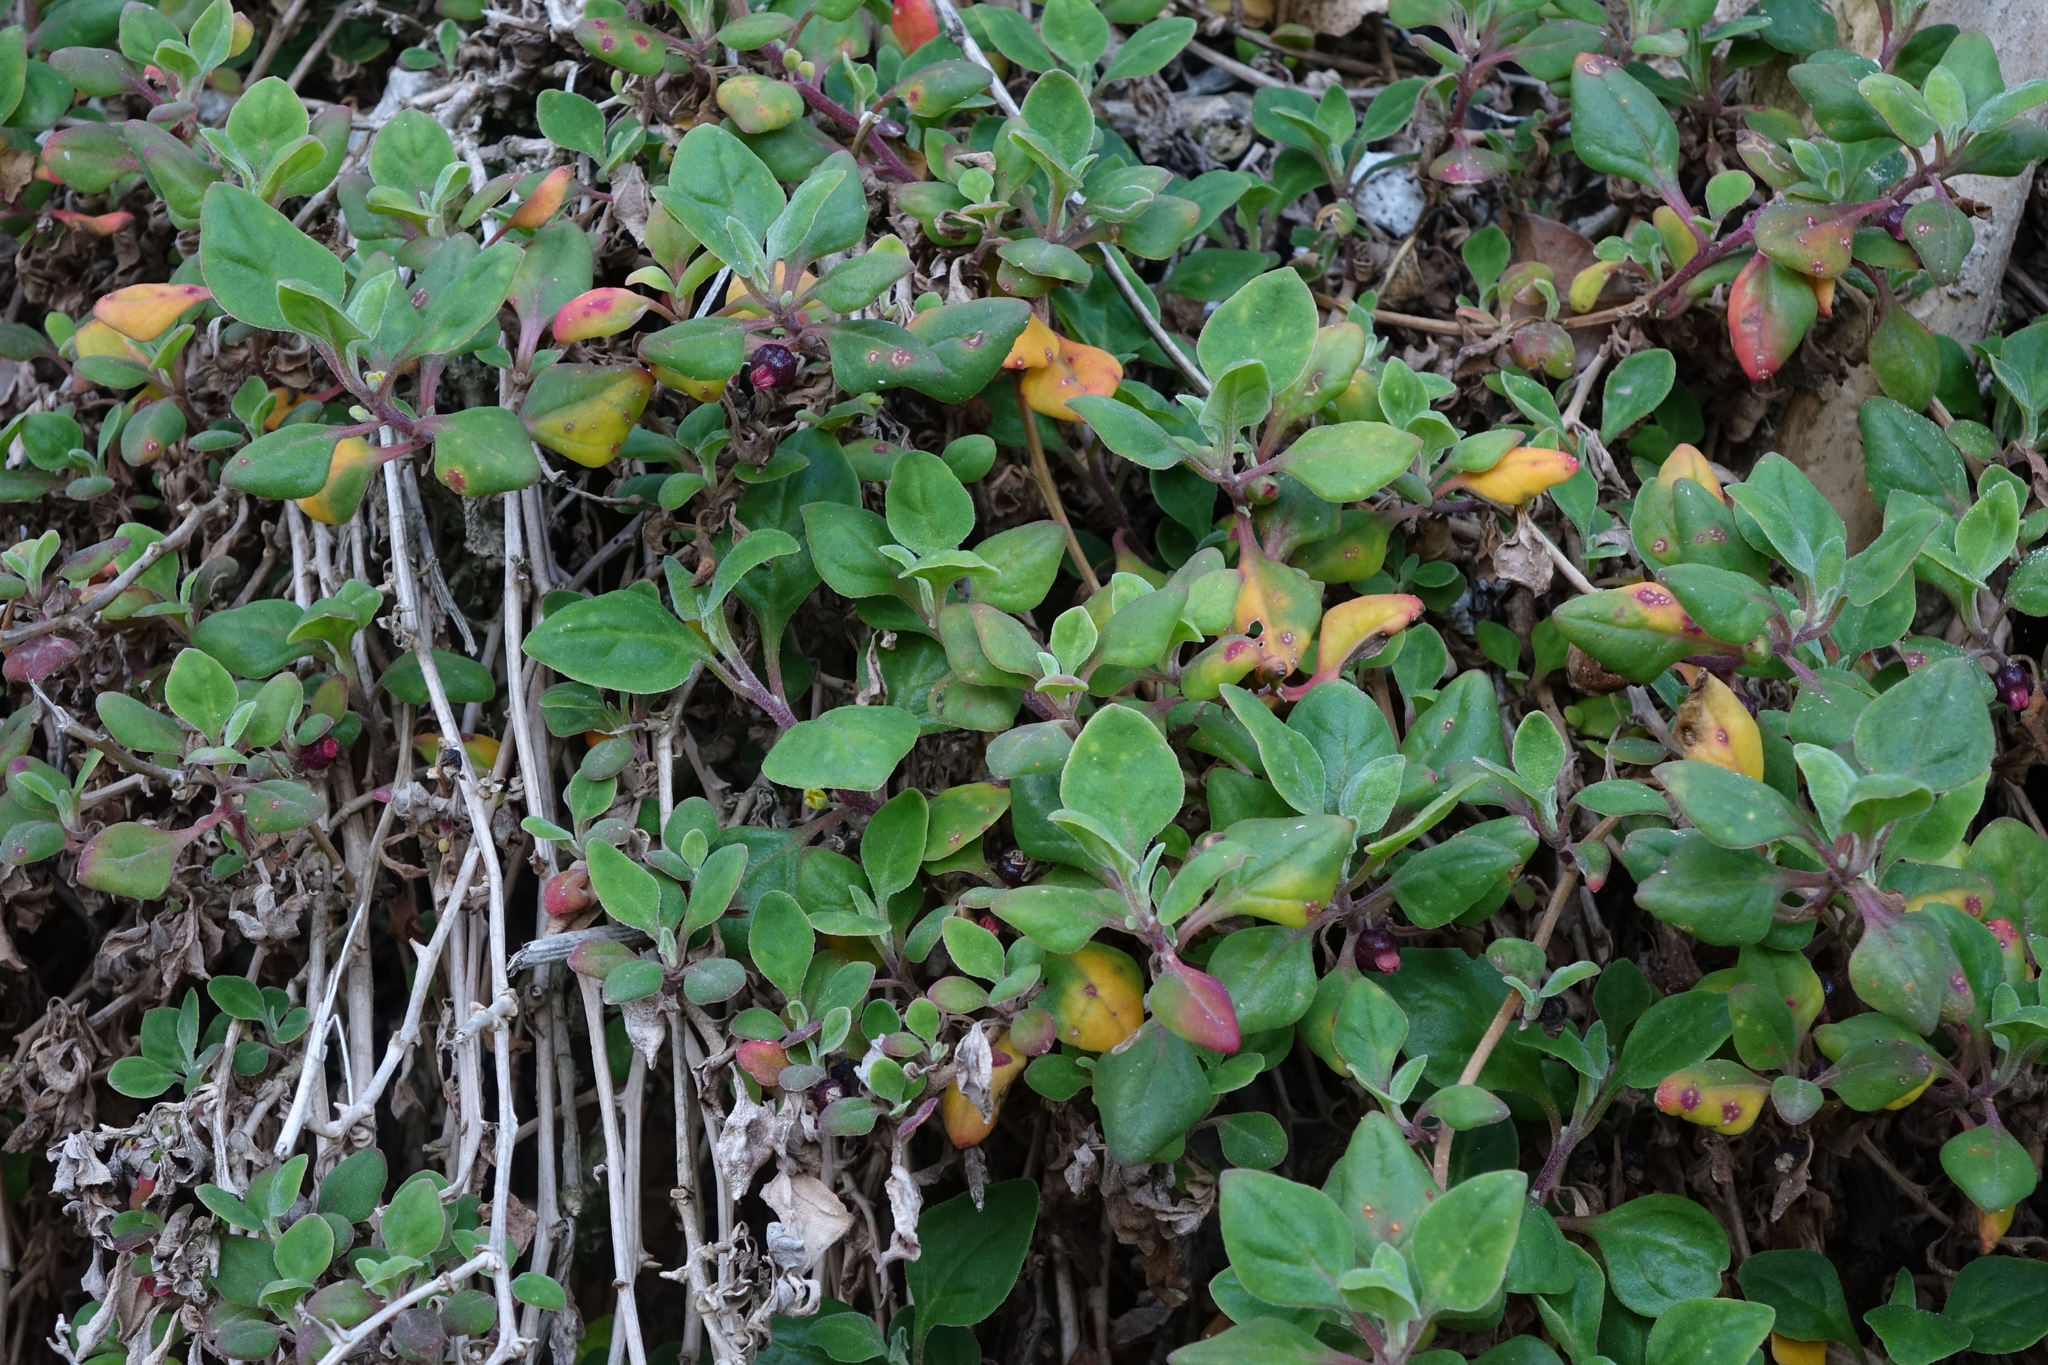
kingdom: Plantae
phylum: Tracheophyta
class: Magnoliopsida
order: Caryophyllales
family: Aizoaceae
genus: Tetragonia
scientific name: Tetragonia implexicoma
